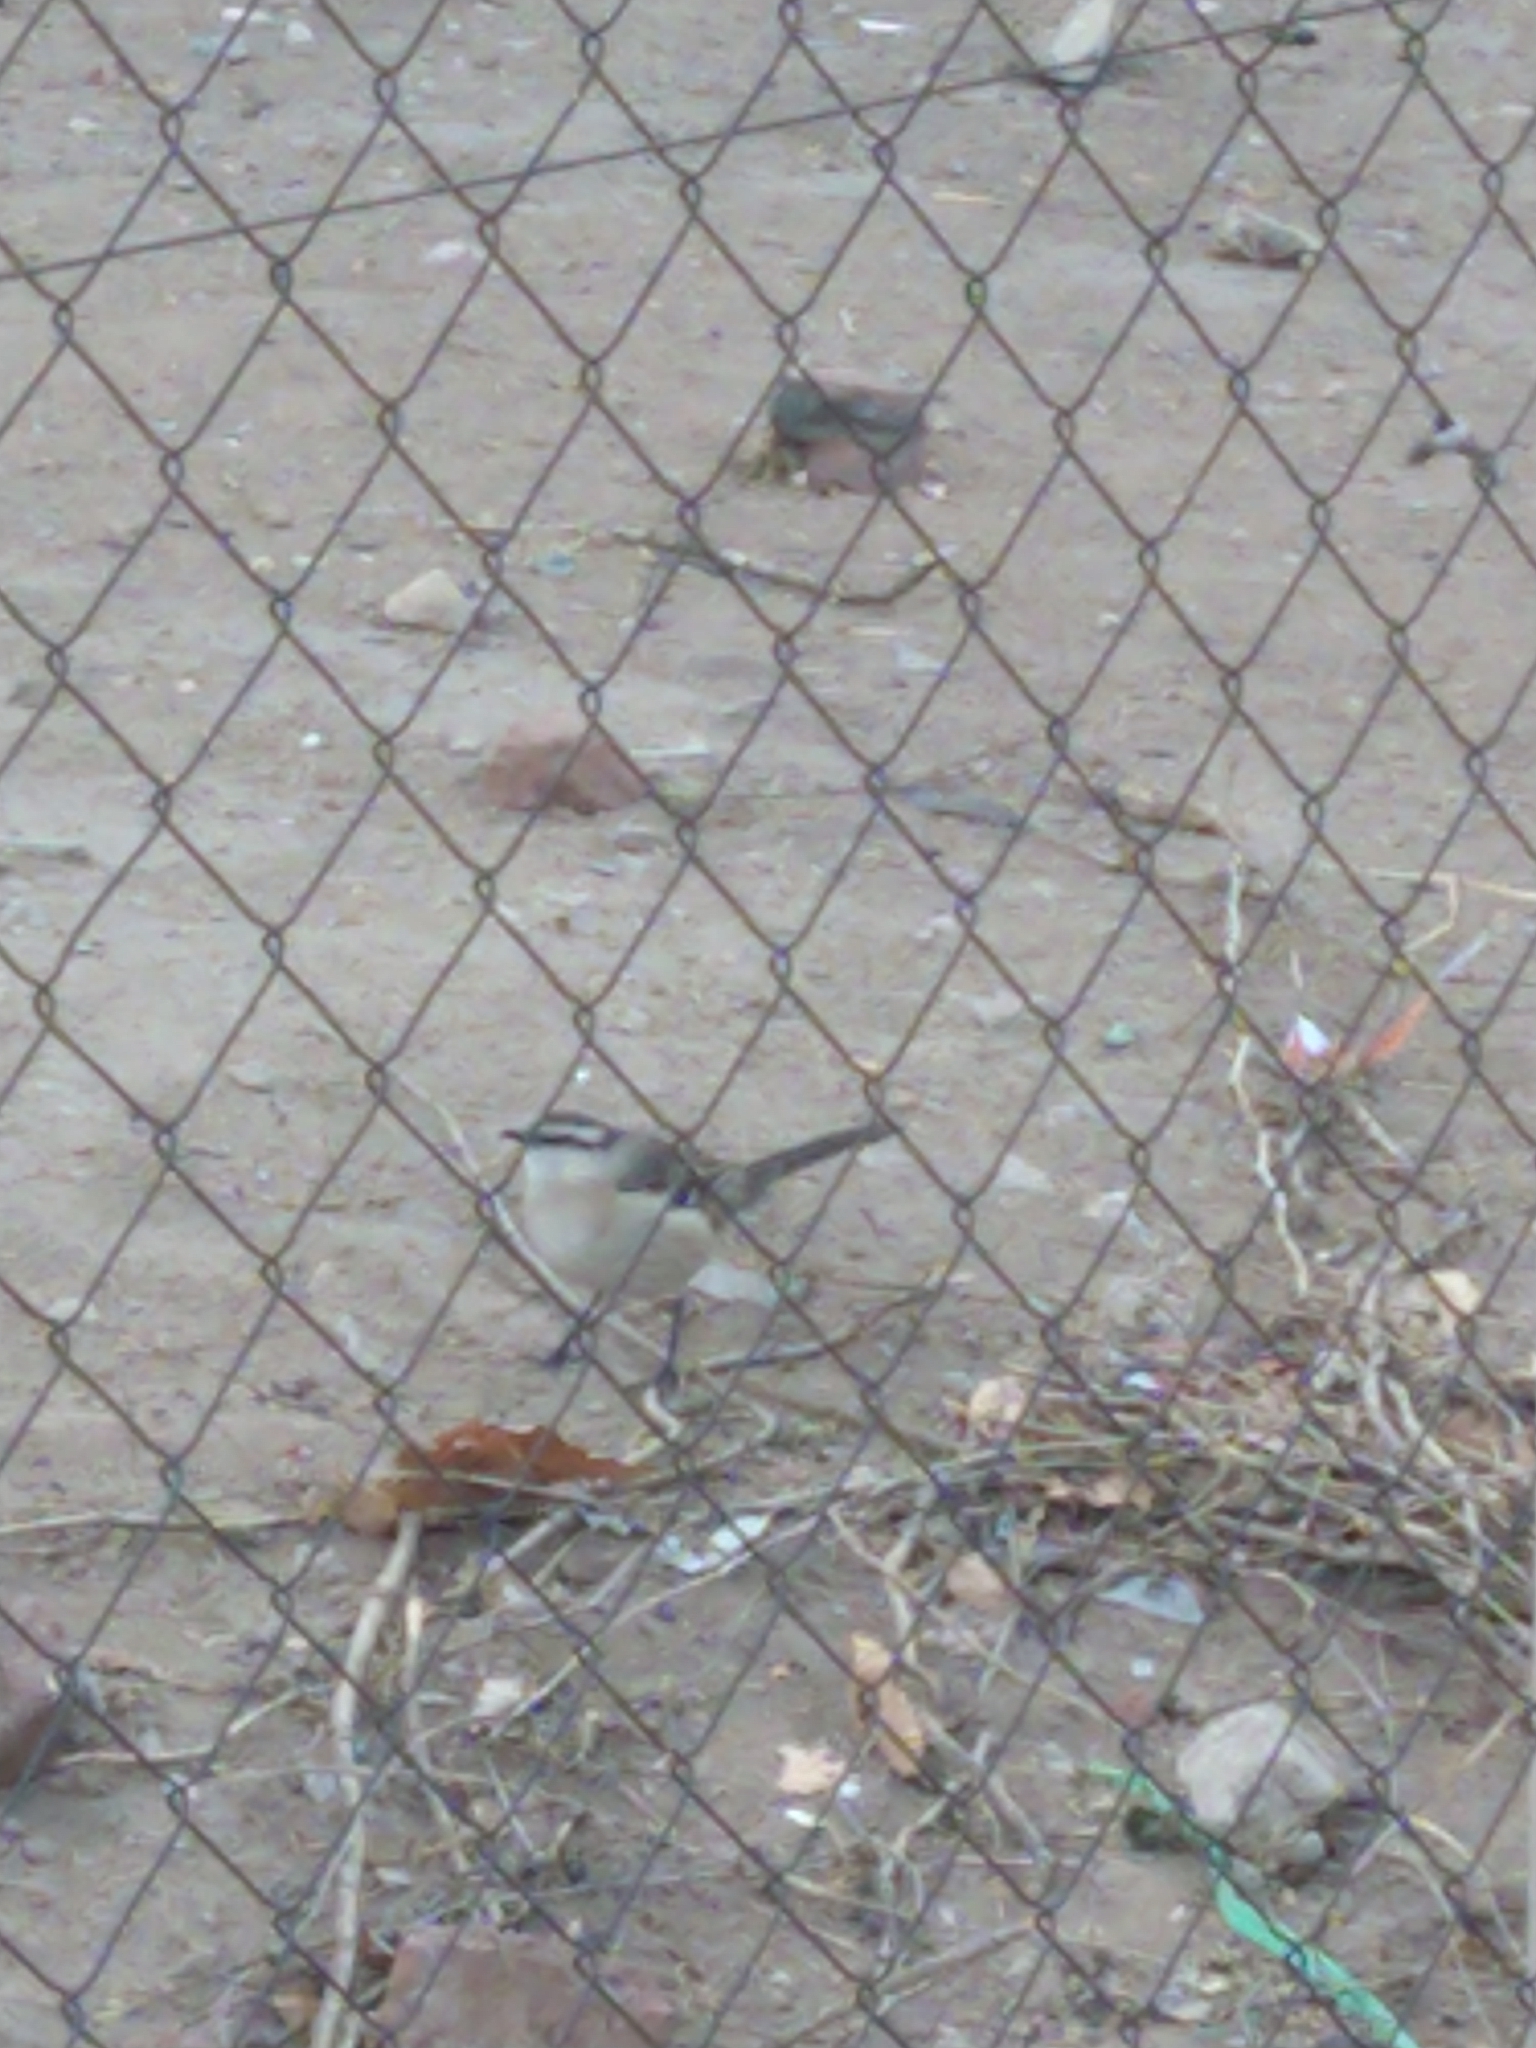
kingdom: Animalia
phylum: Chordata
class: Aves
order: Passeriformes
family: Mimidae
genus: Mimus
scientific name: Mimus saturninus
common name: Chalk-browed mockingbird
